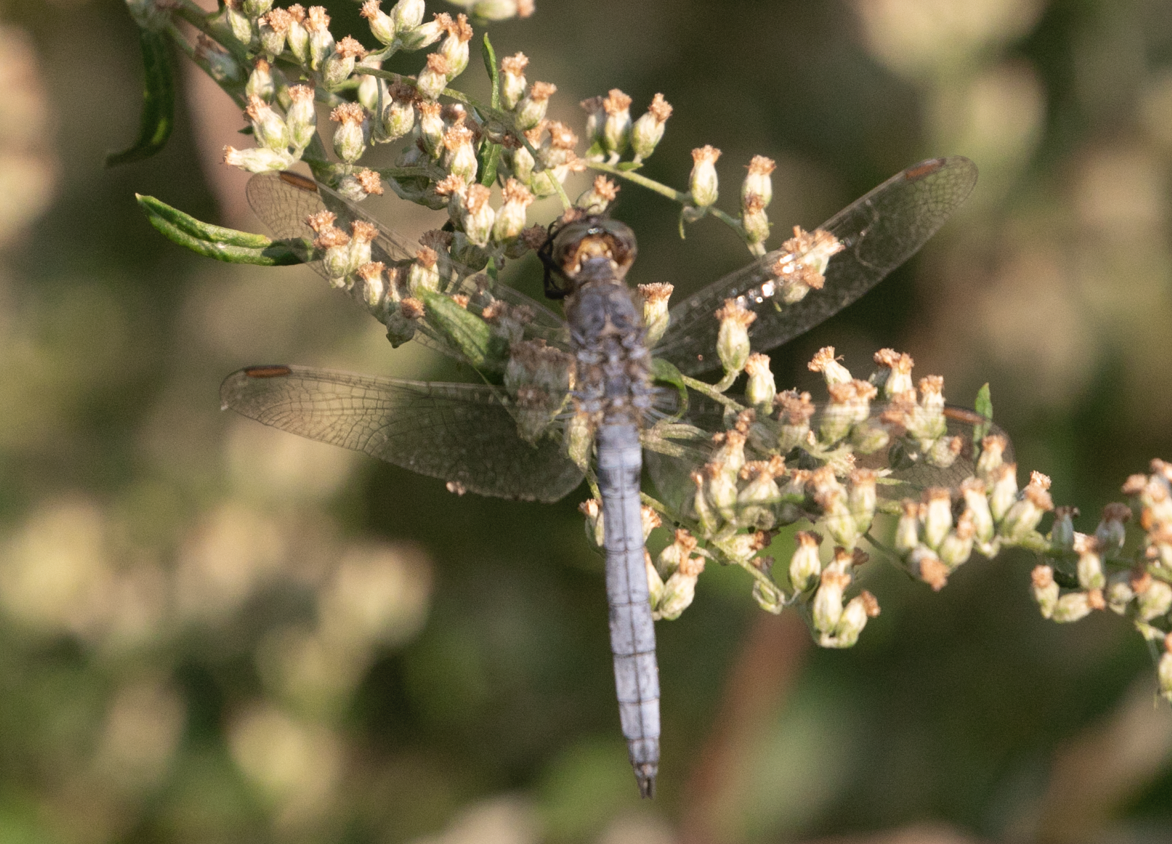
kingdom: Animalia
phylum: Arthropoda
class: Insecta
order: Odonata
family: Libellulidae
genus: Orthetrum
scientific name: Orthetrum coerulescens
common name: Keeled skimmer
